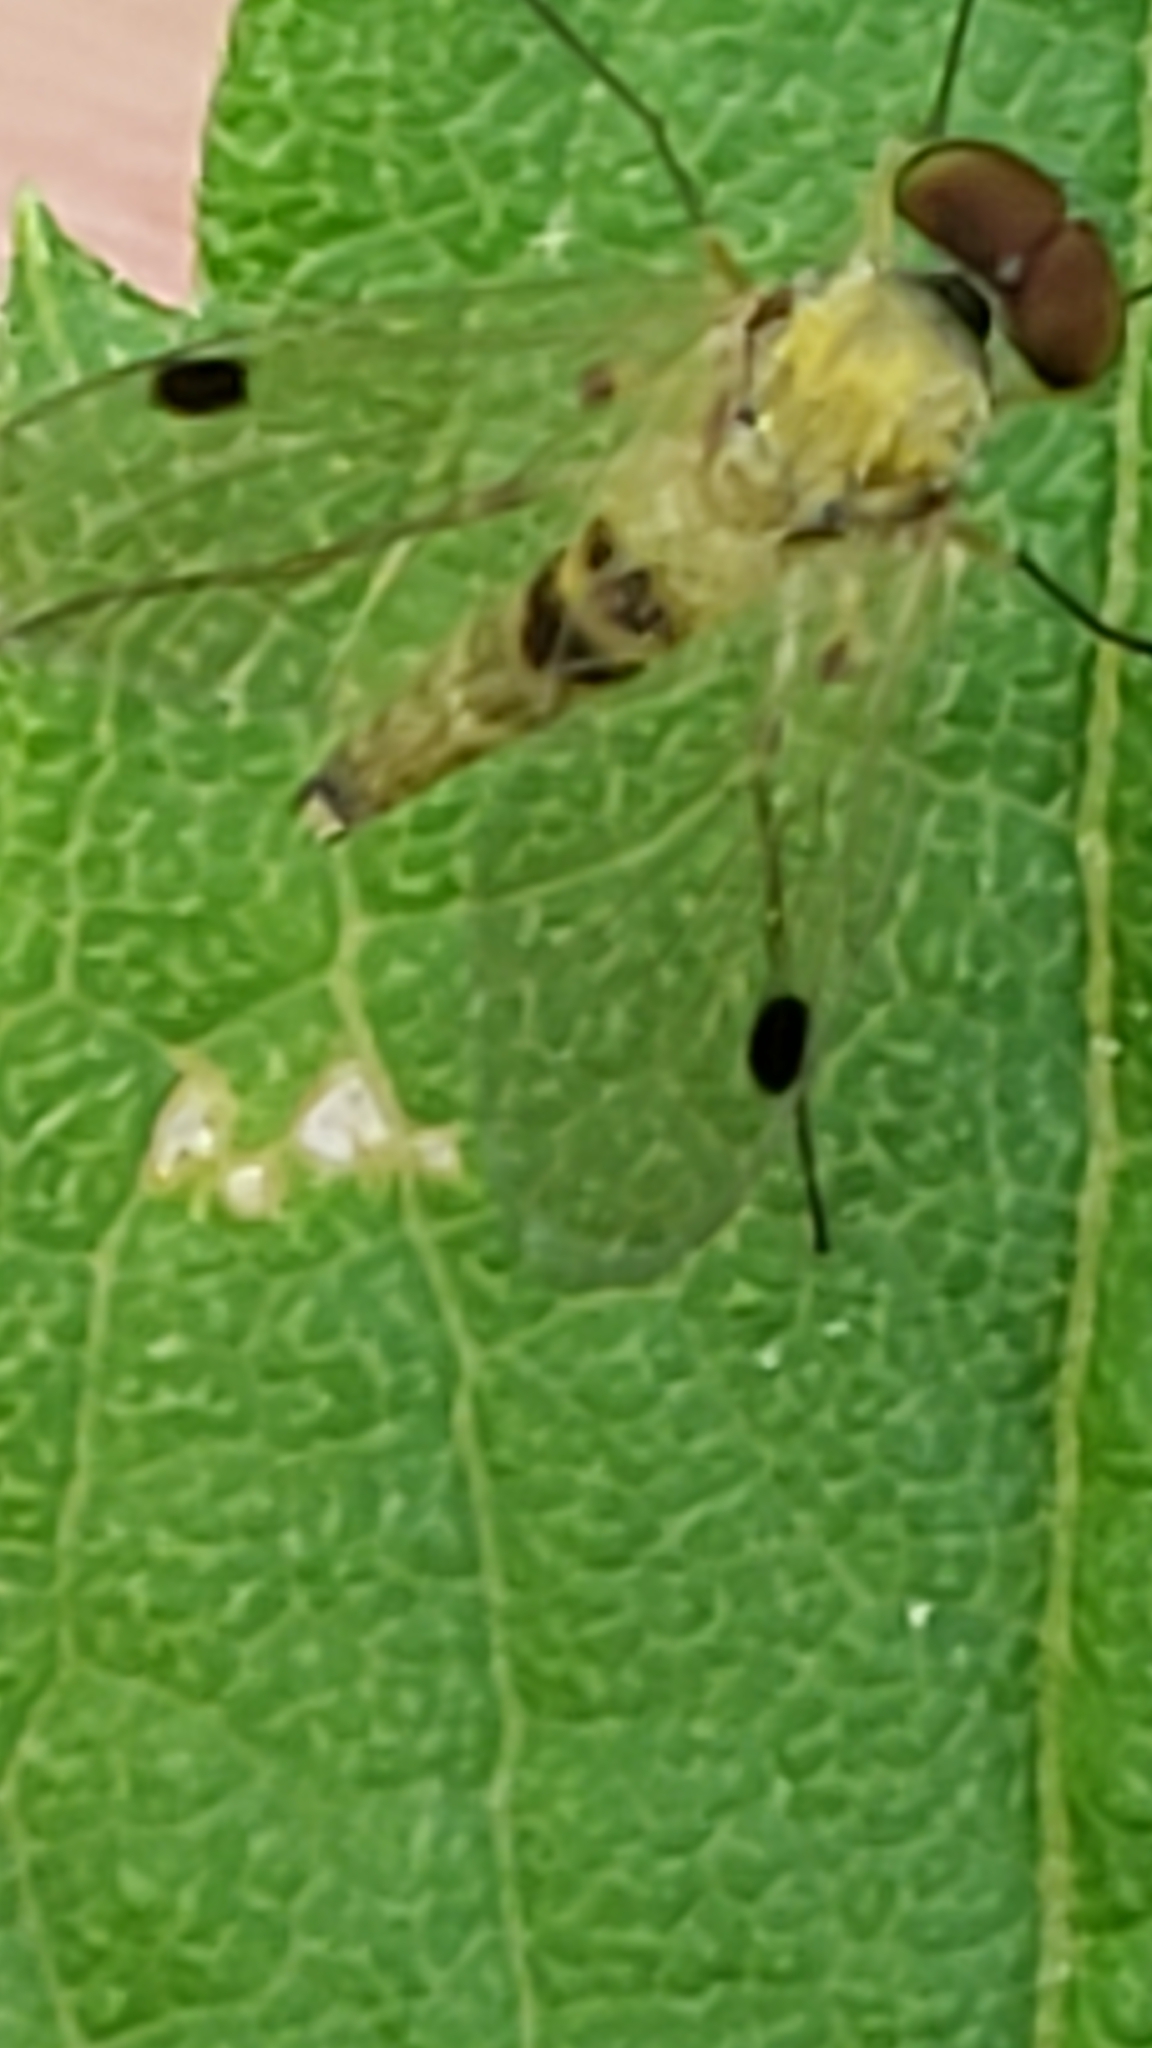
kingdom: Animalia
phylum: Arthropoda
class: Insecta
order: Diptera
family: Rhagionidae
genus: Chrysopilus
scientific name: Chrysopilus modestus
